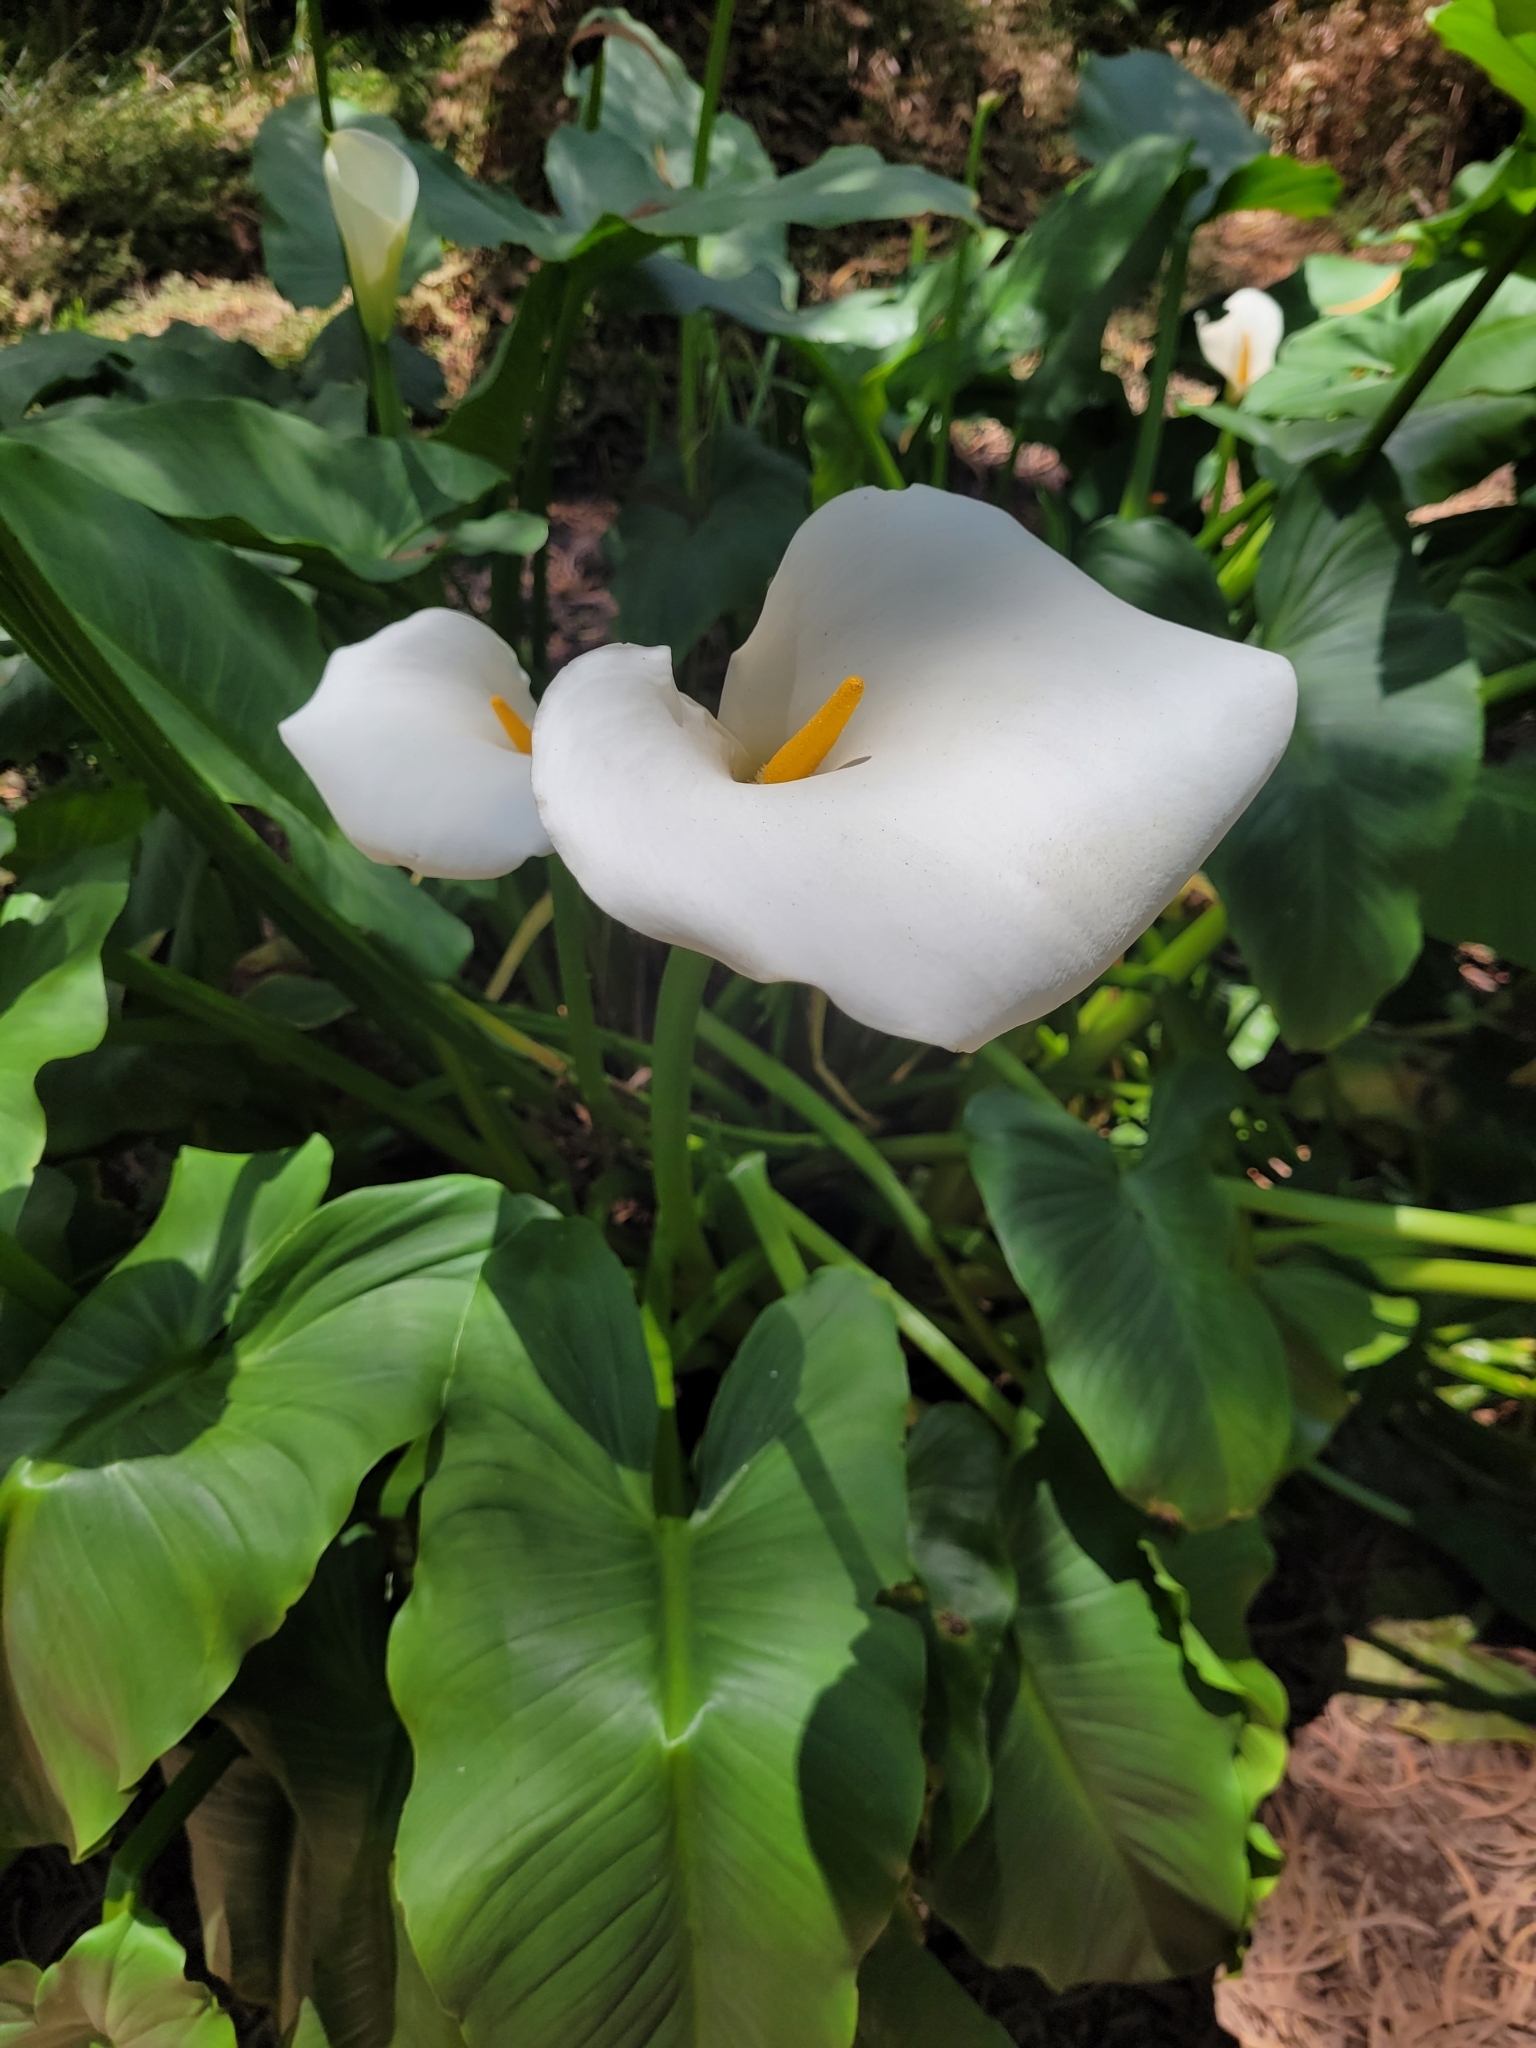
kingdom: Plantae
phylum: Tracheophyta
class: Liliopsida
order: Alismatales
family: Araceae
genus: Zantedeschia
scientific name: Zantedeschia aethiopica
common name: Altar-lily
